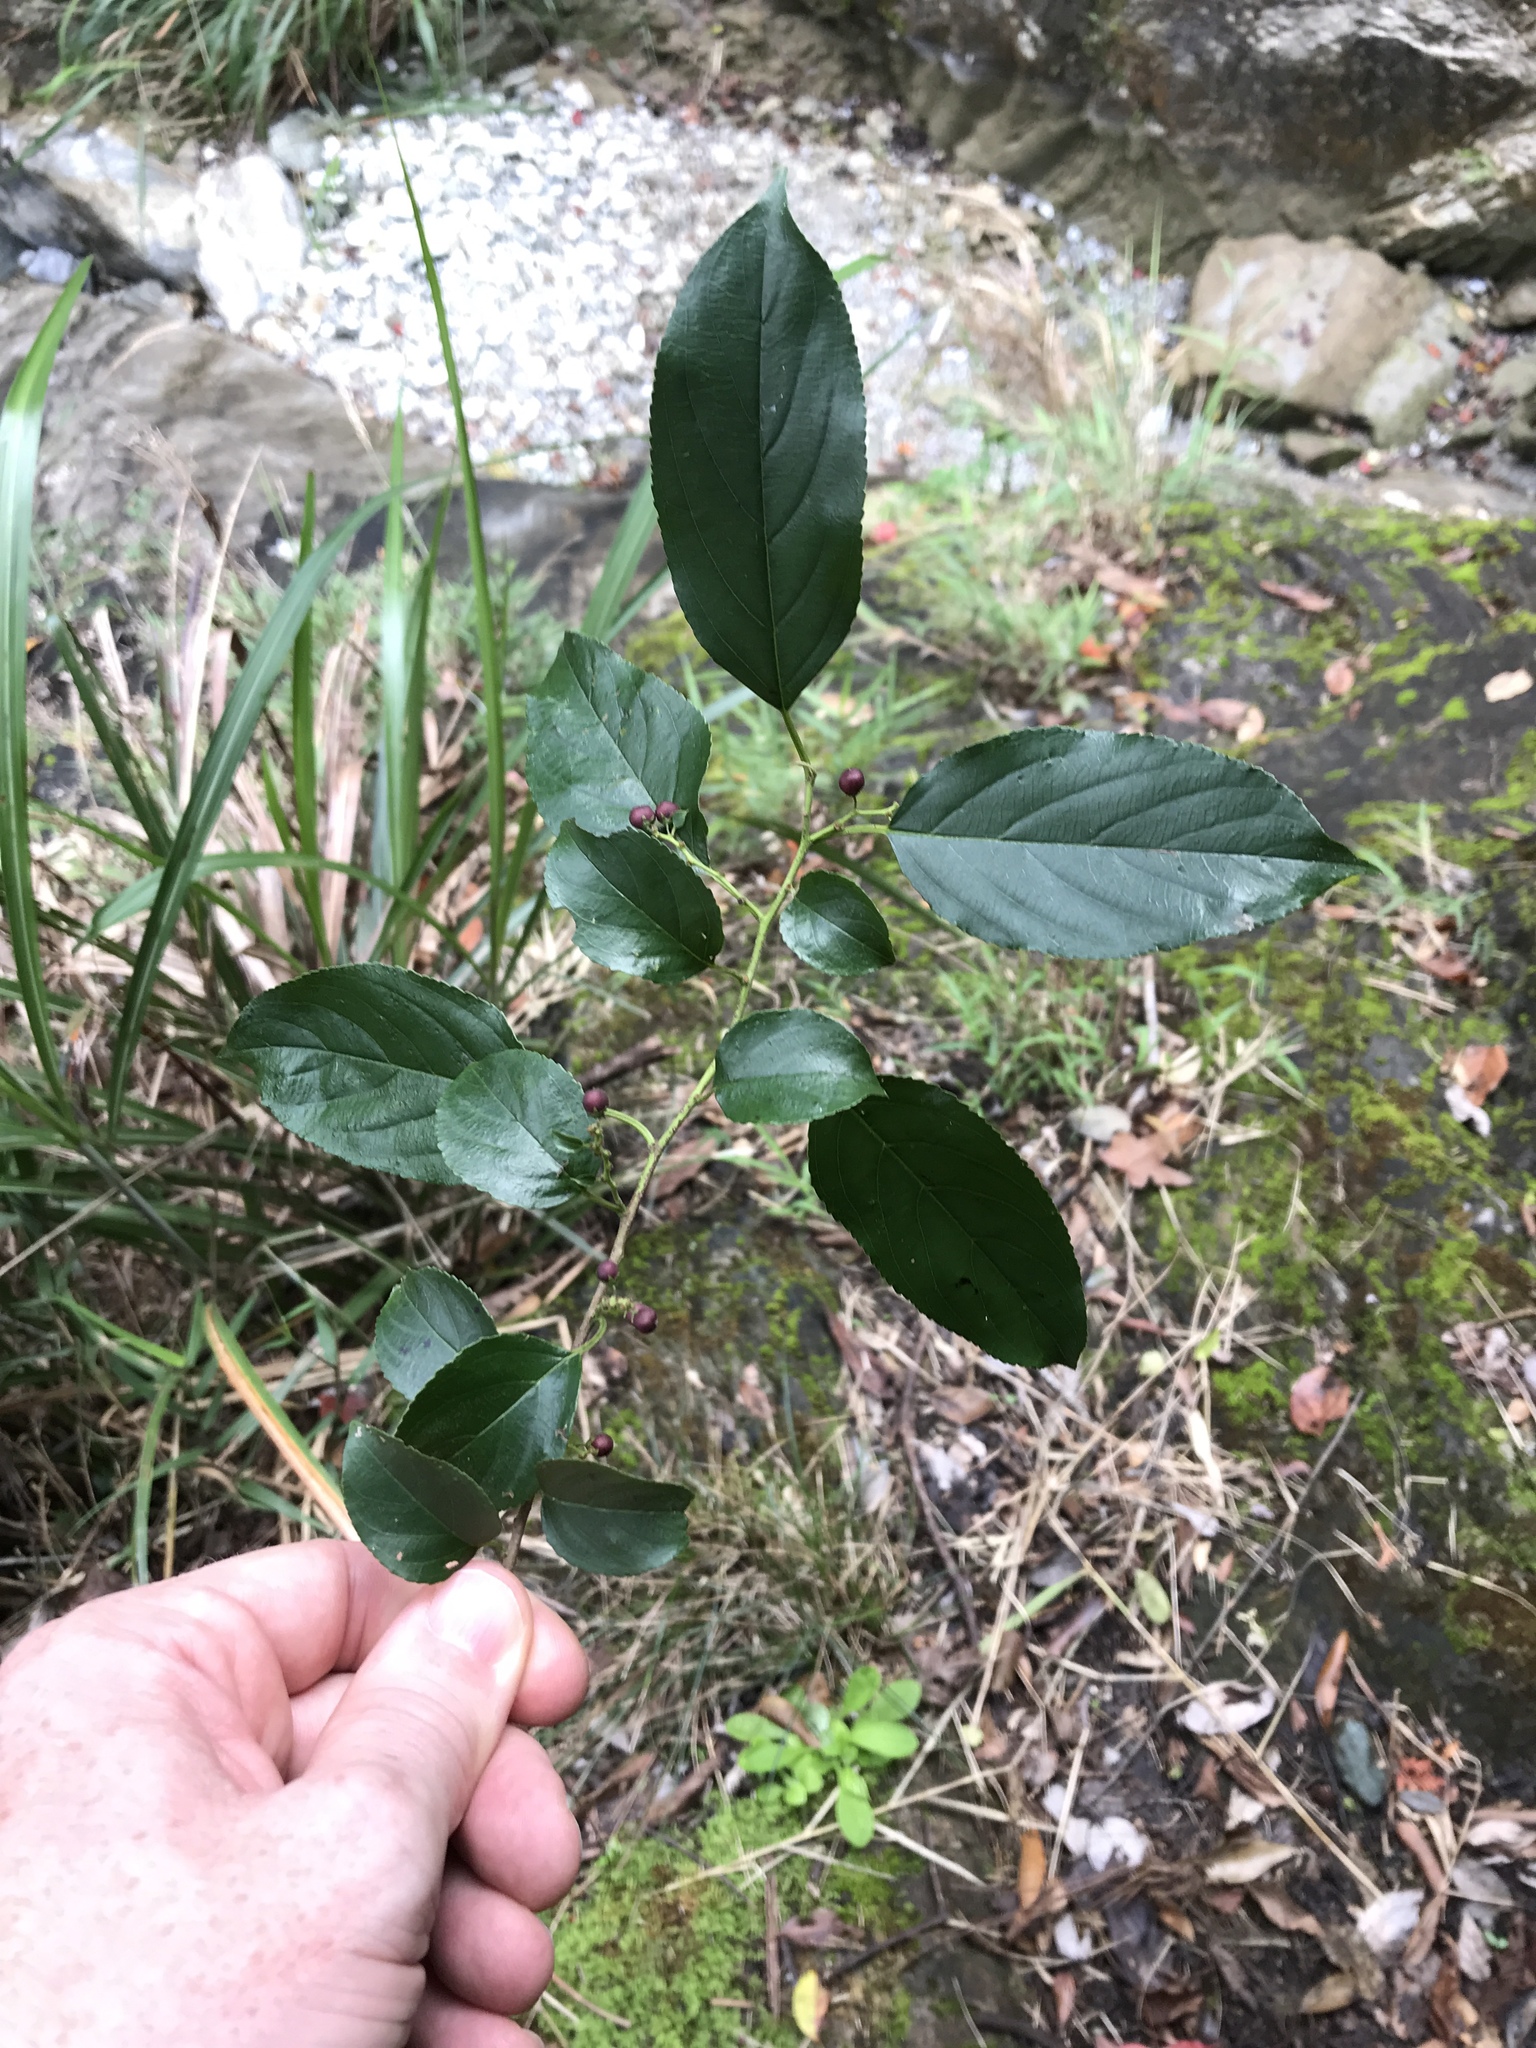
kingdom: Plantae
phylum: Tracheophyta
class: Magnoliopsida
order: Rosales
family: Rhamnaceae
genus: Rhamnus
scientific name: Rhamnus formosana
